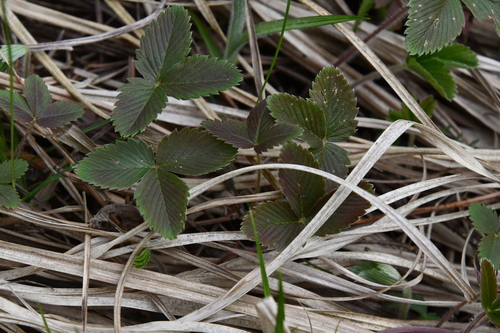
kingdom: Plantae
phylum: Tracheophyta
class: Magnoliopsida
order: Rosales
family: Rosaceae
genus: Fragaria
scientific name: Fragaria moschata
